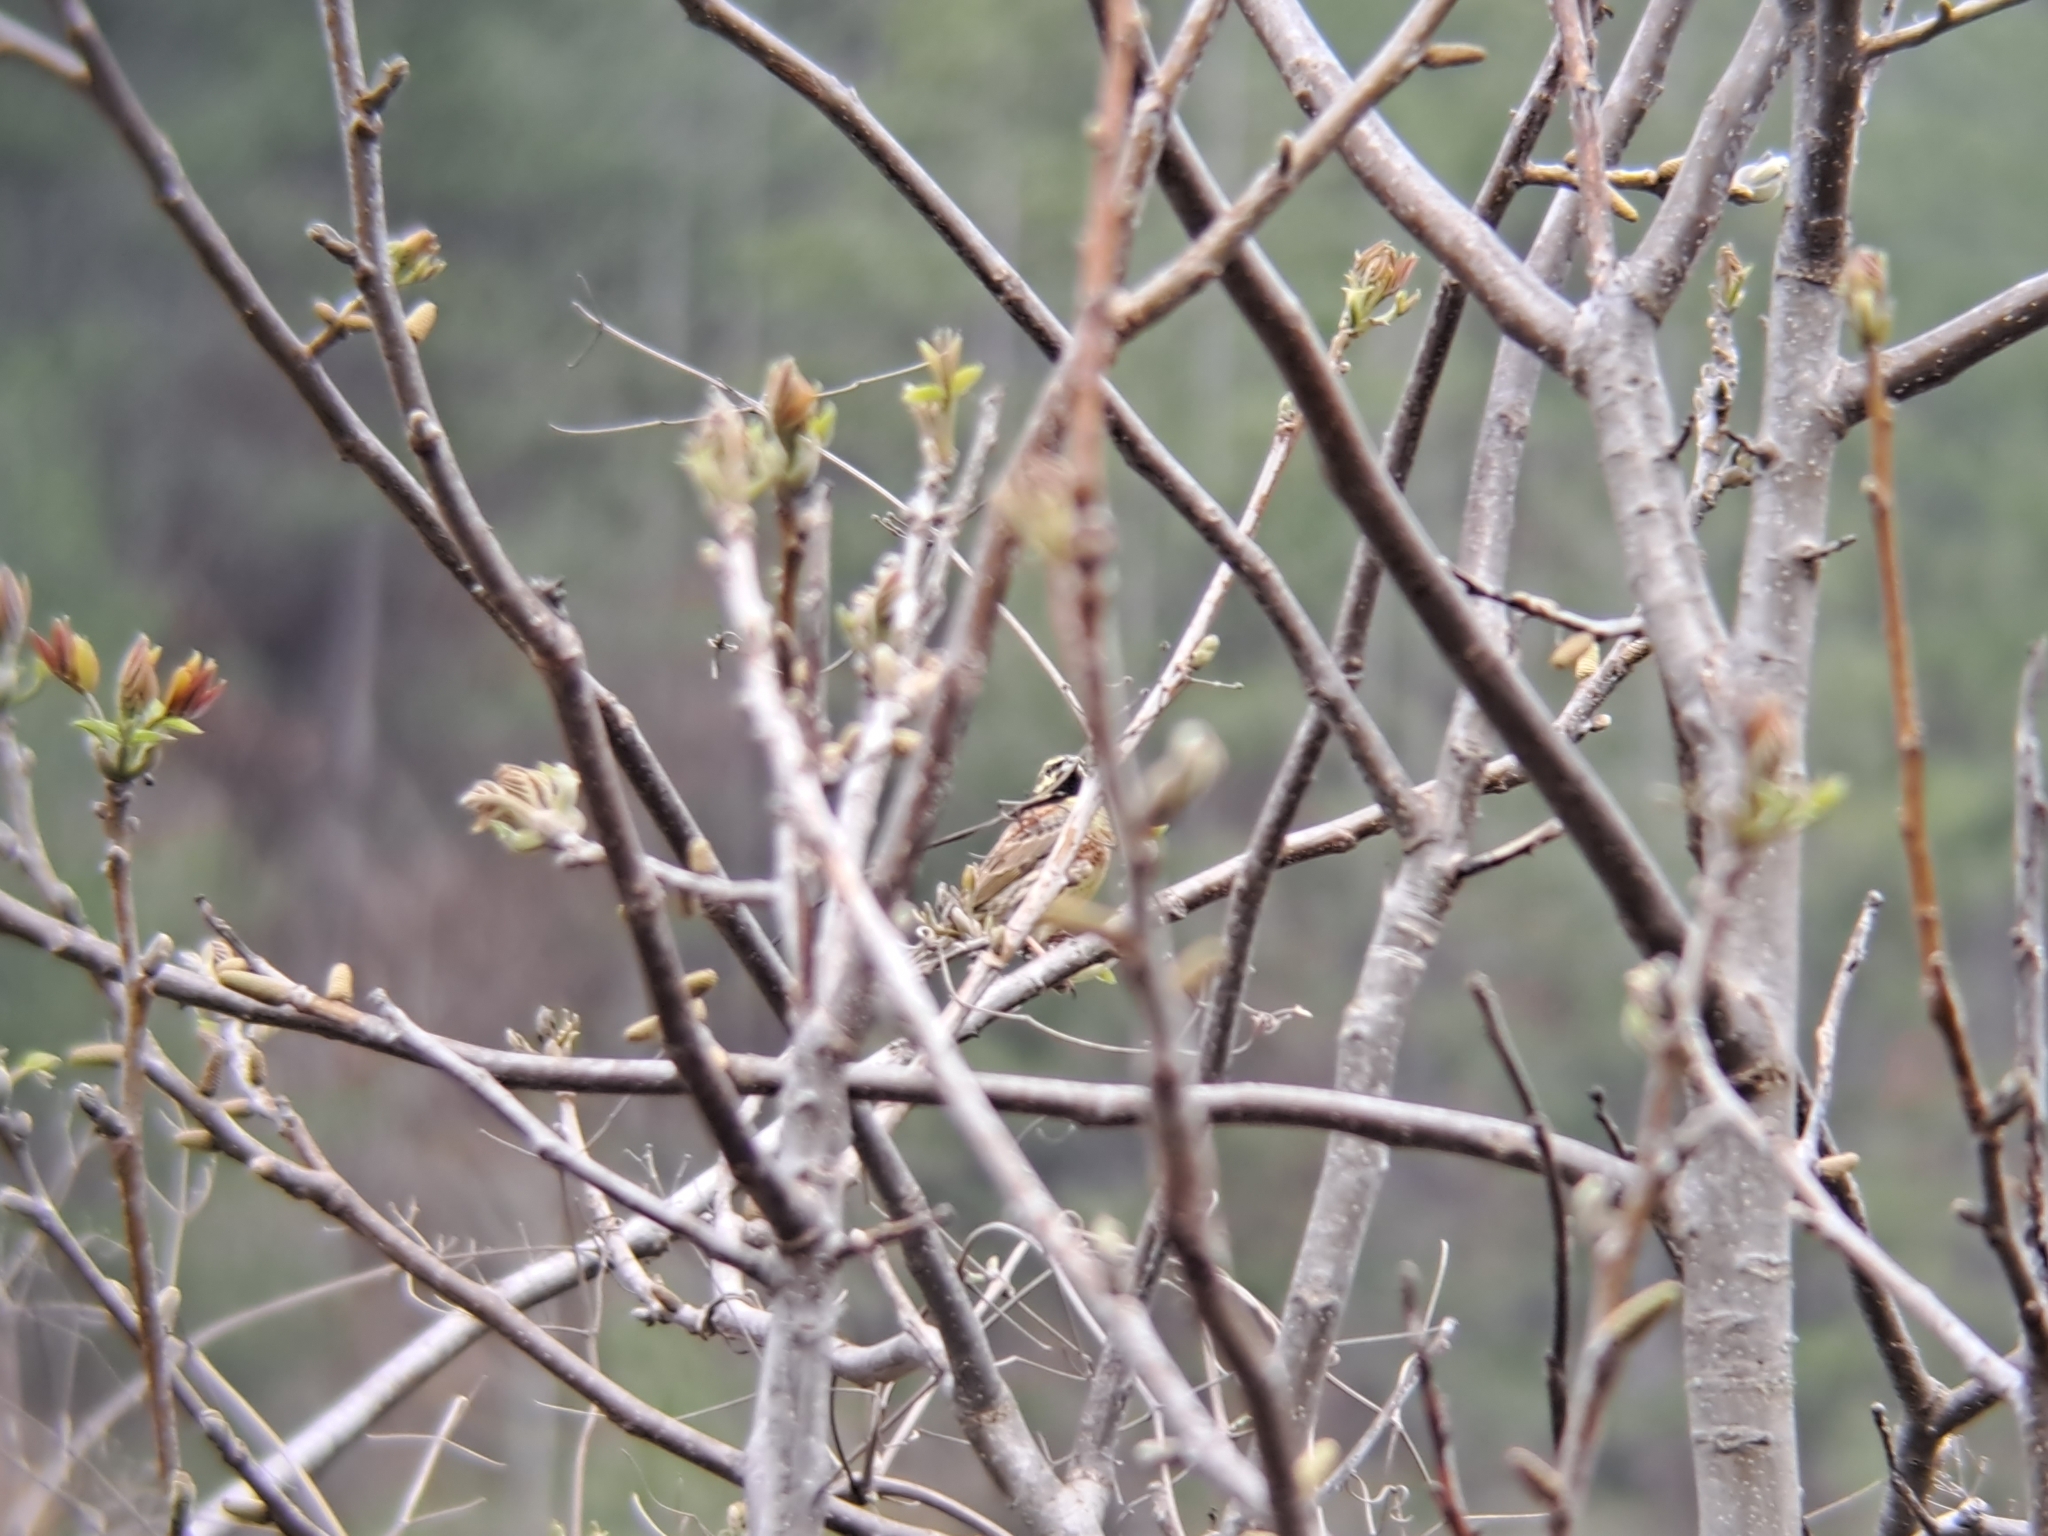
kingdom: Animalia
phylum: Chordata
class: Aves
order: Passeriformes
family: Emberizidae
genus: Emberiza
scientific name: Emberiza cirlus
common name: Cirl bunting
